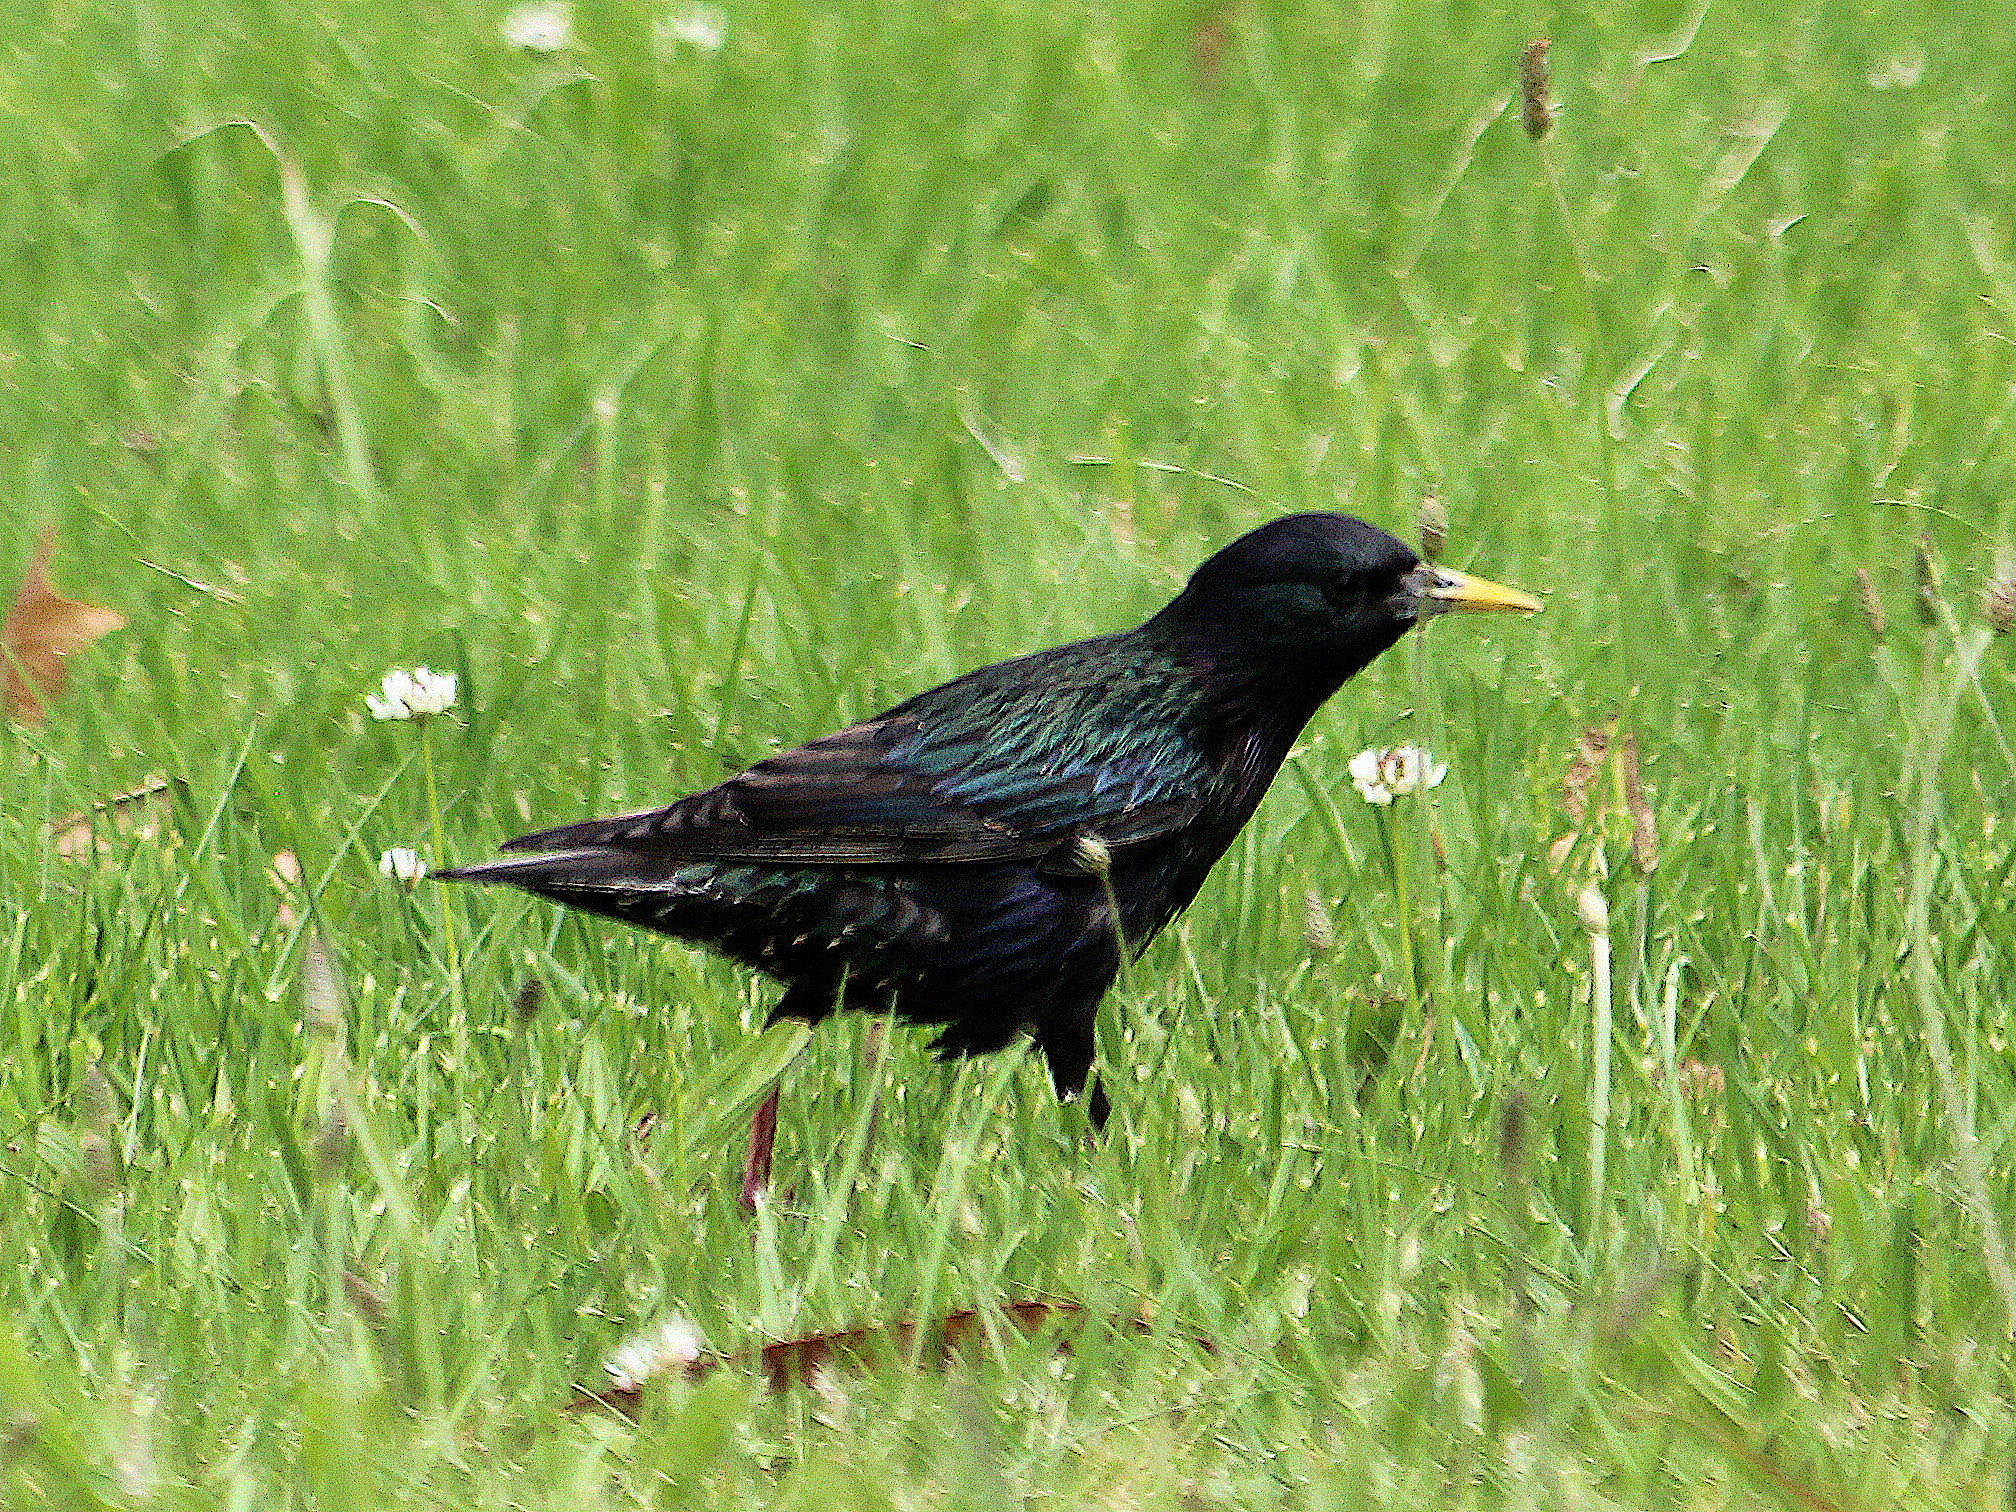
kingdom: Animalia
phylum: Chordata
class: Aves
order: Passeriformes
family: Sturnidae
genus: Sturnus
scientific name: Sturnus vulgaris
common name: Common starling
